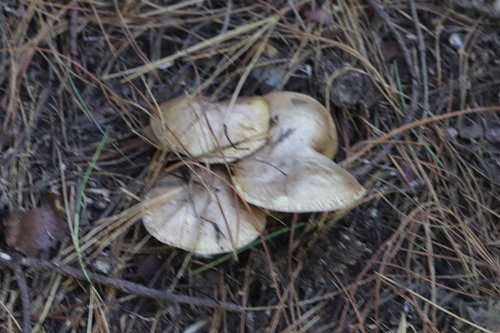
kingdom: Fungi
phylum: Basidiomycota
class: Agaricomycetes
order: Boletales
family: Suillaceae
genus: Suillus
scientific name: Suillus placidus
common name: Slippery white bolete
